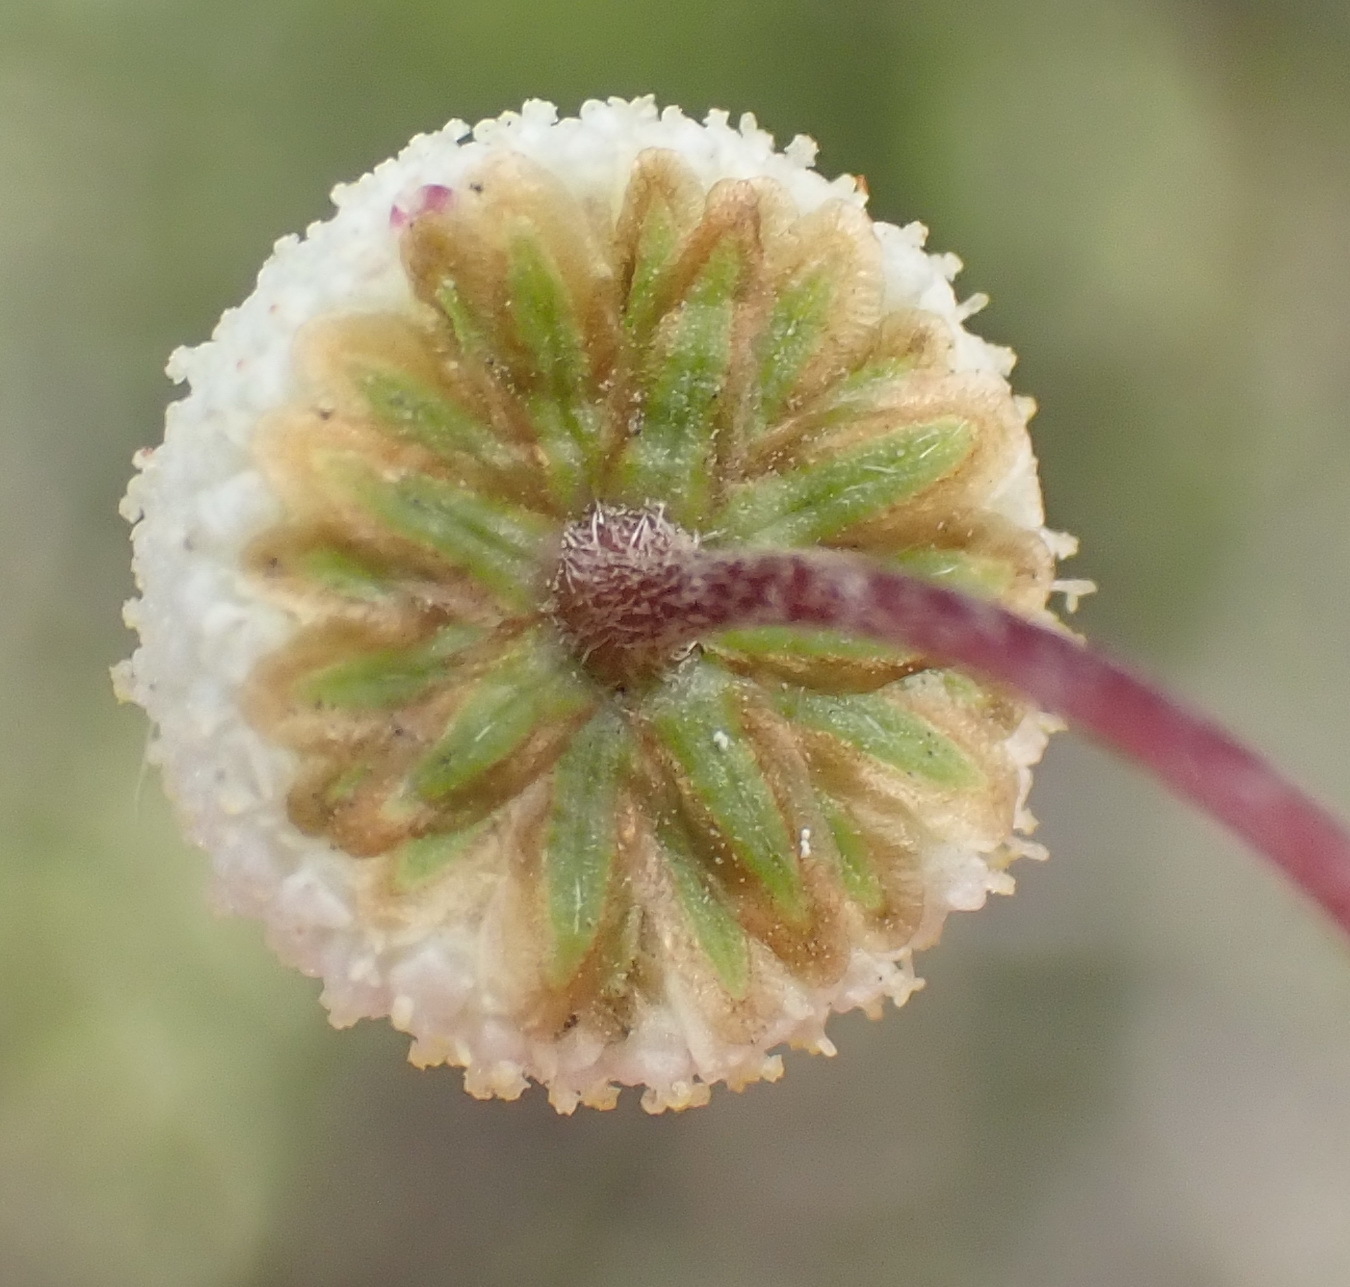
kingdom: Plantae
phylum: Tracheophyta
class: Magnoliopsida
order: Asterales
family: Asteraceae
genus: Cotula
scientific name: Cotula laxa
